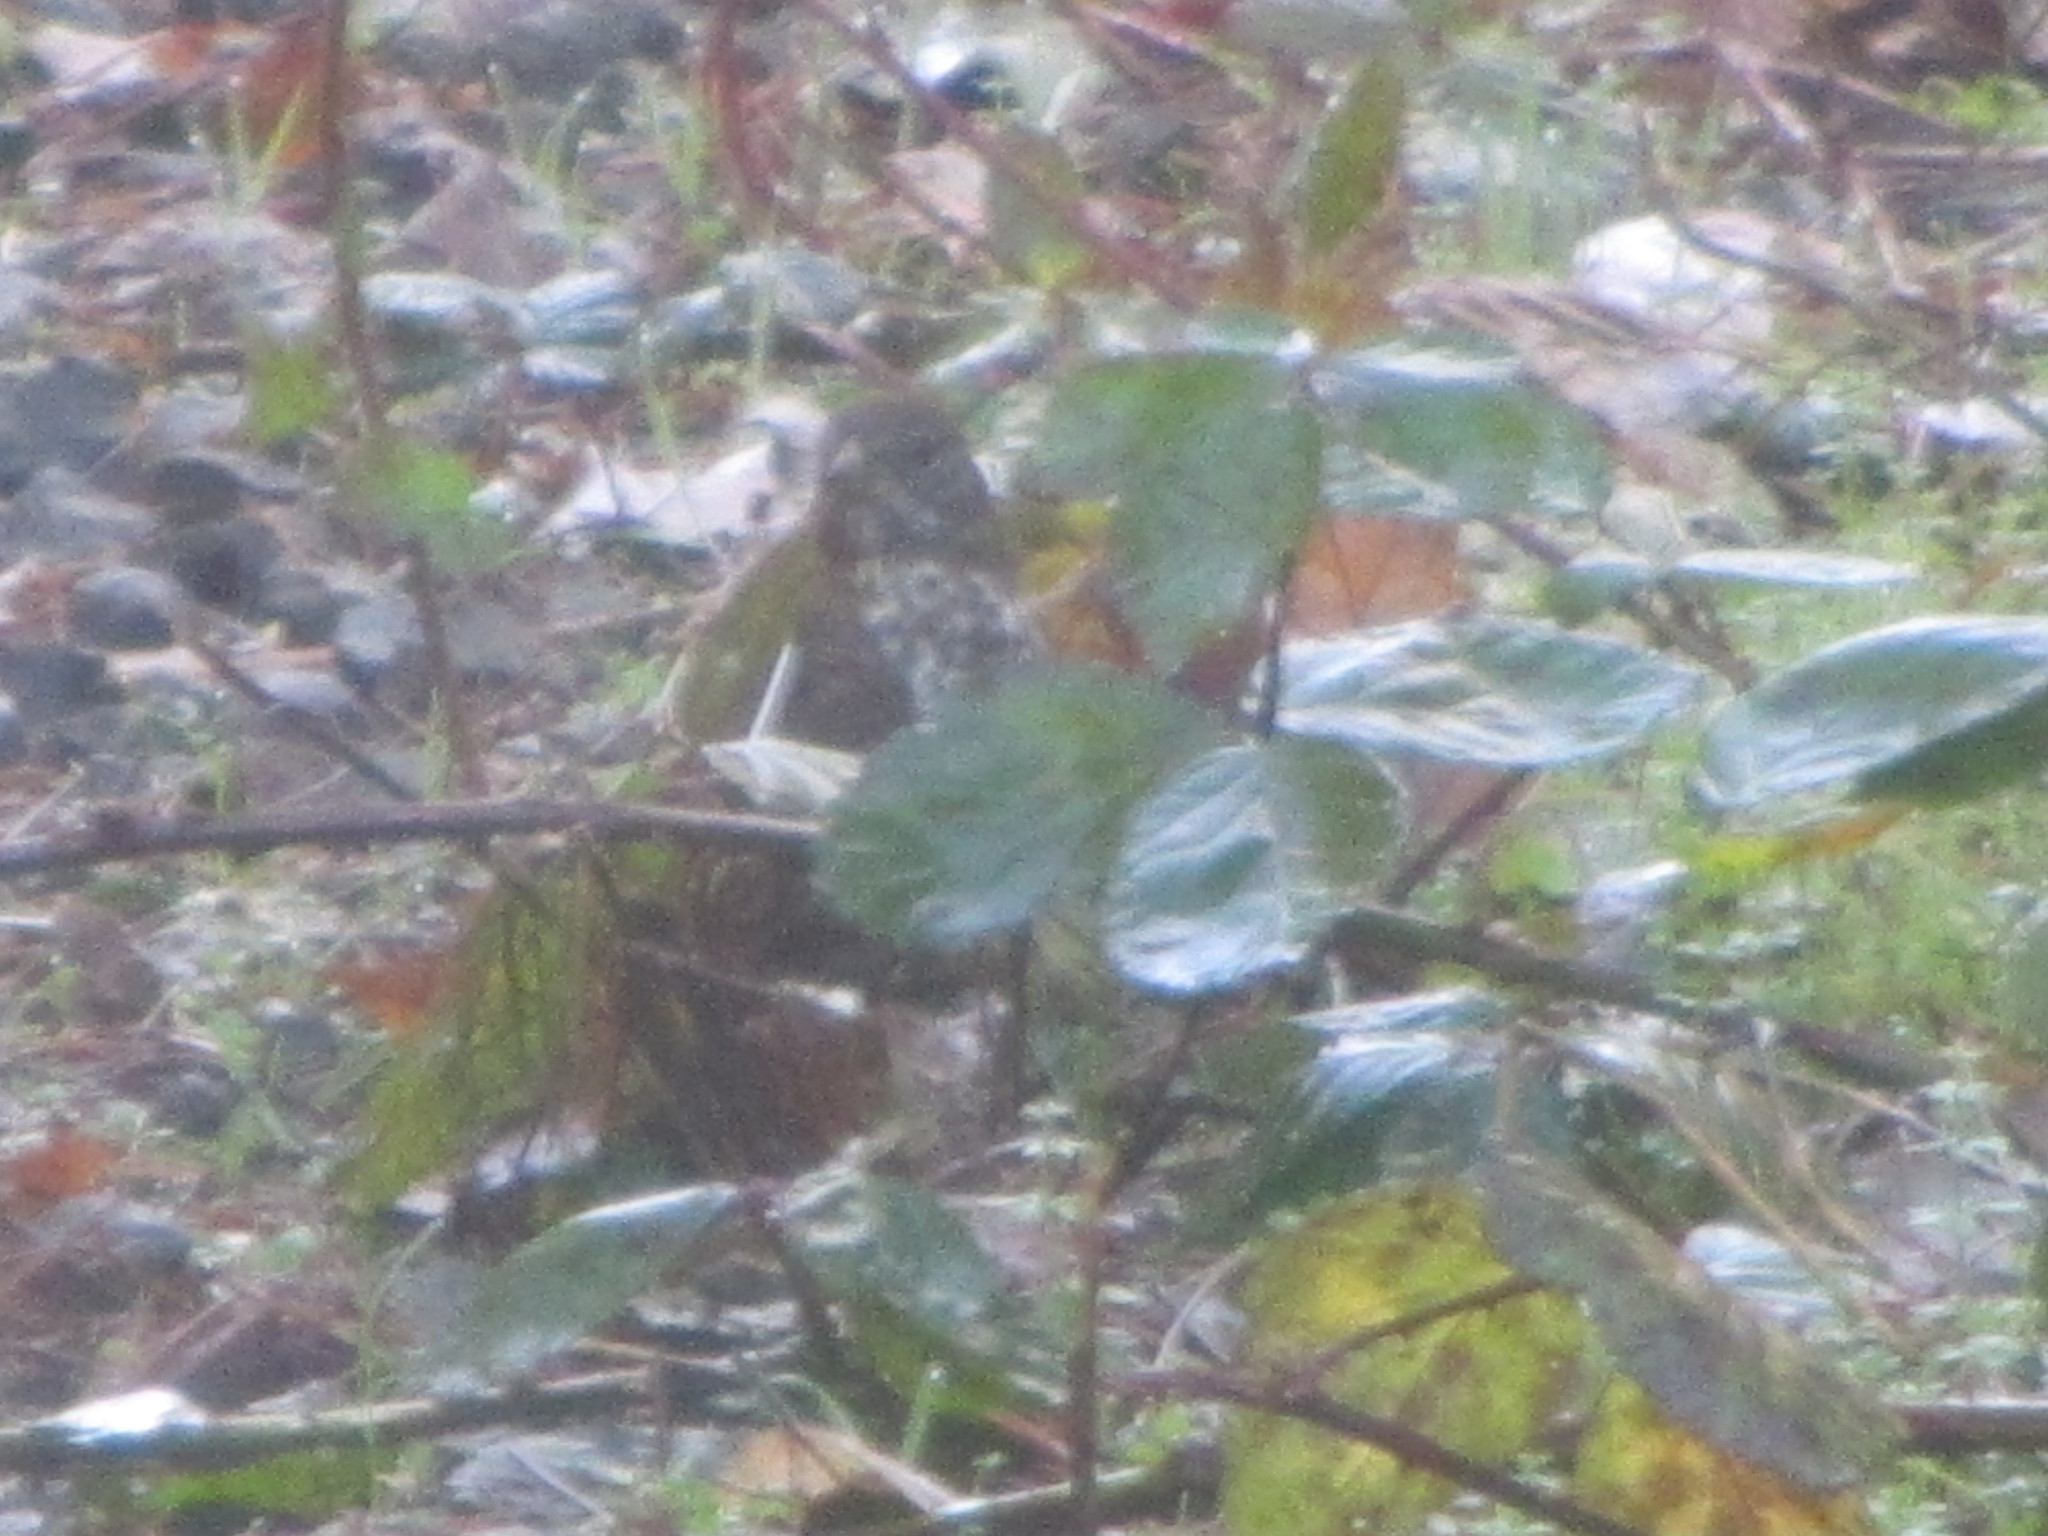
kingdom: Animalia
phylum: Chordata
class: Aves
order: Passeriformes
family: Passerellidae
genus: Passerella
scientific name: Passerella iliaca
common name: Fox sparrow
